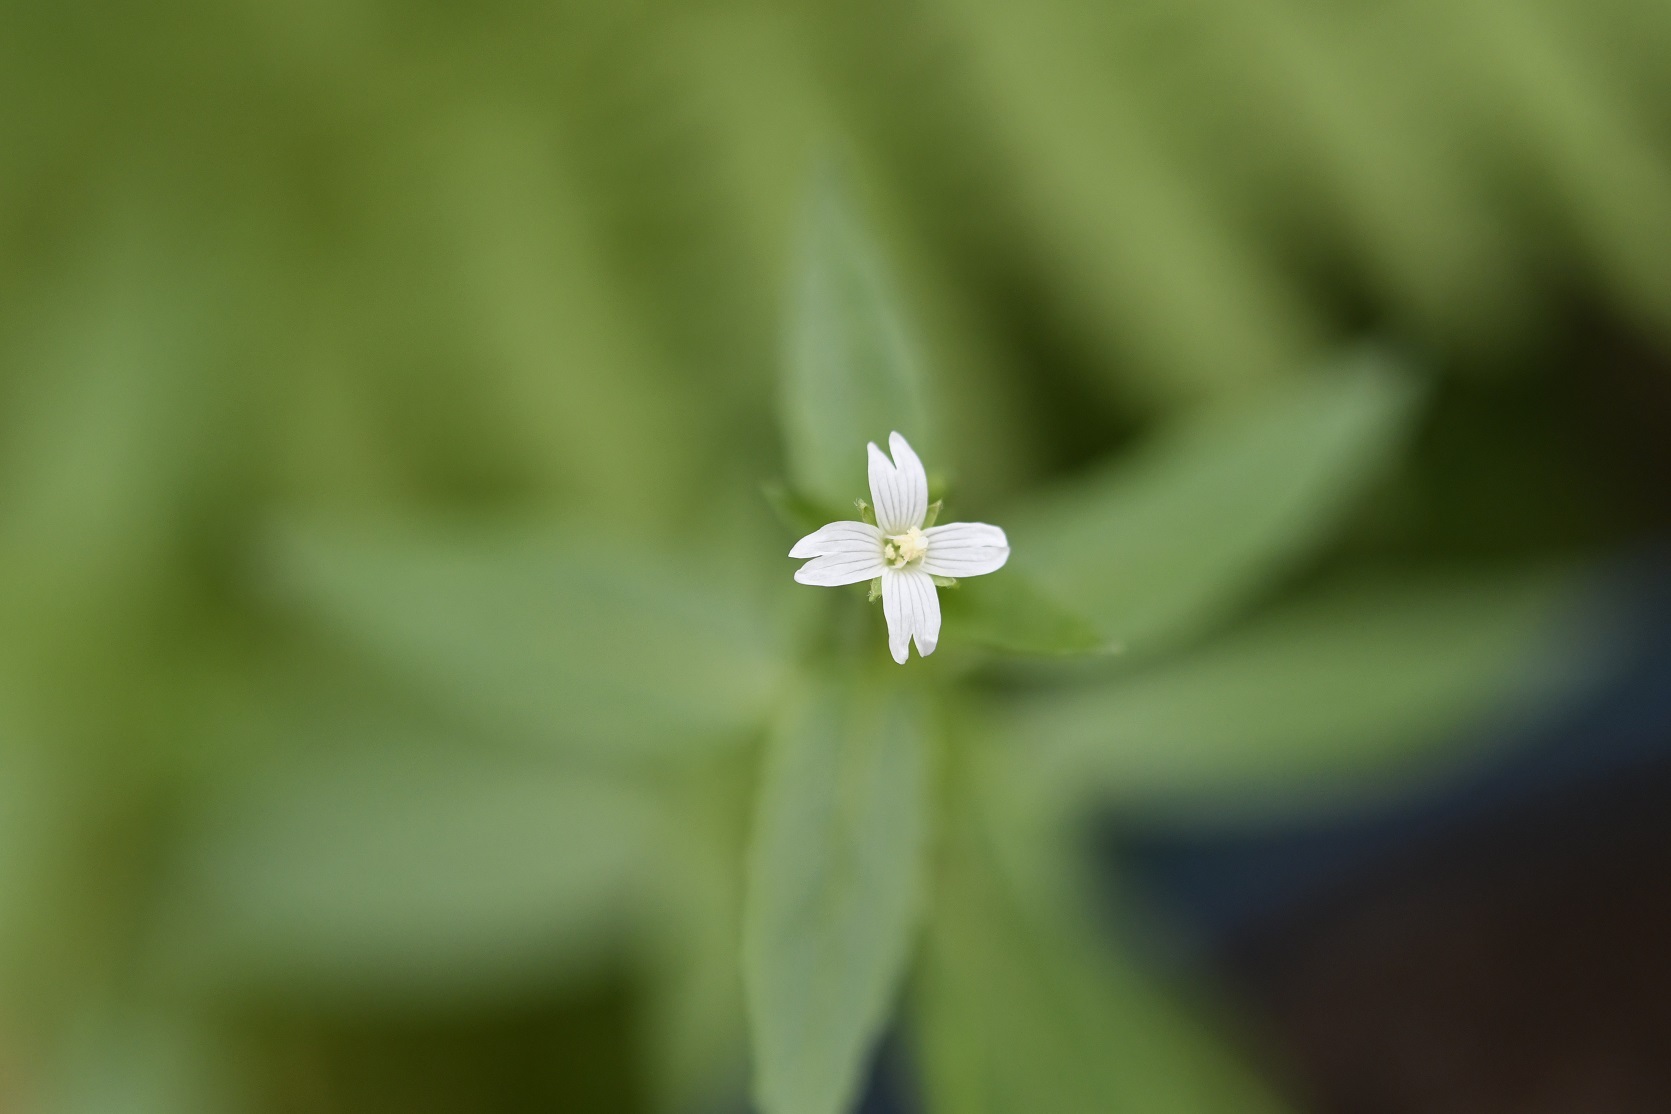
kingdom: Plantae
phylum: Tracheophyta
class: Magnoliopsida
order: Myrtales
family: Onagraceae
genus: Epilobium
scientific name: Epilobium ciliatum
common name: American willowherb
